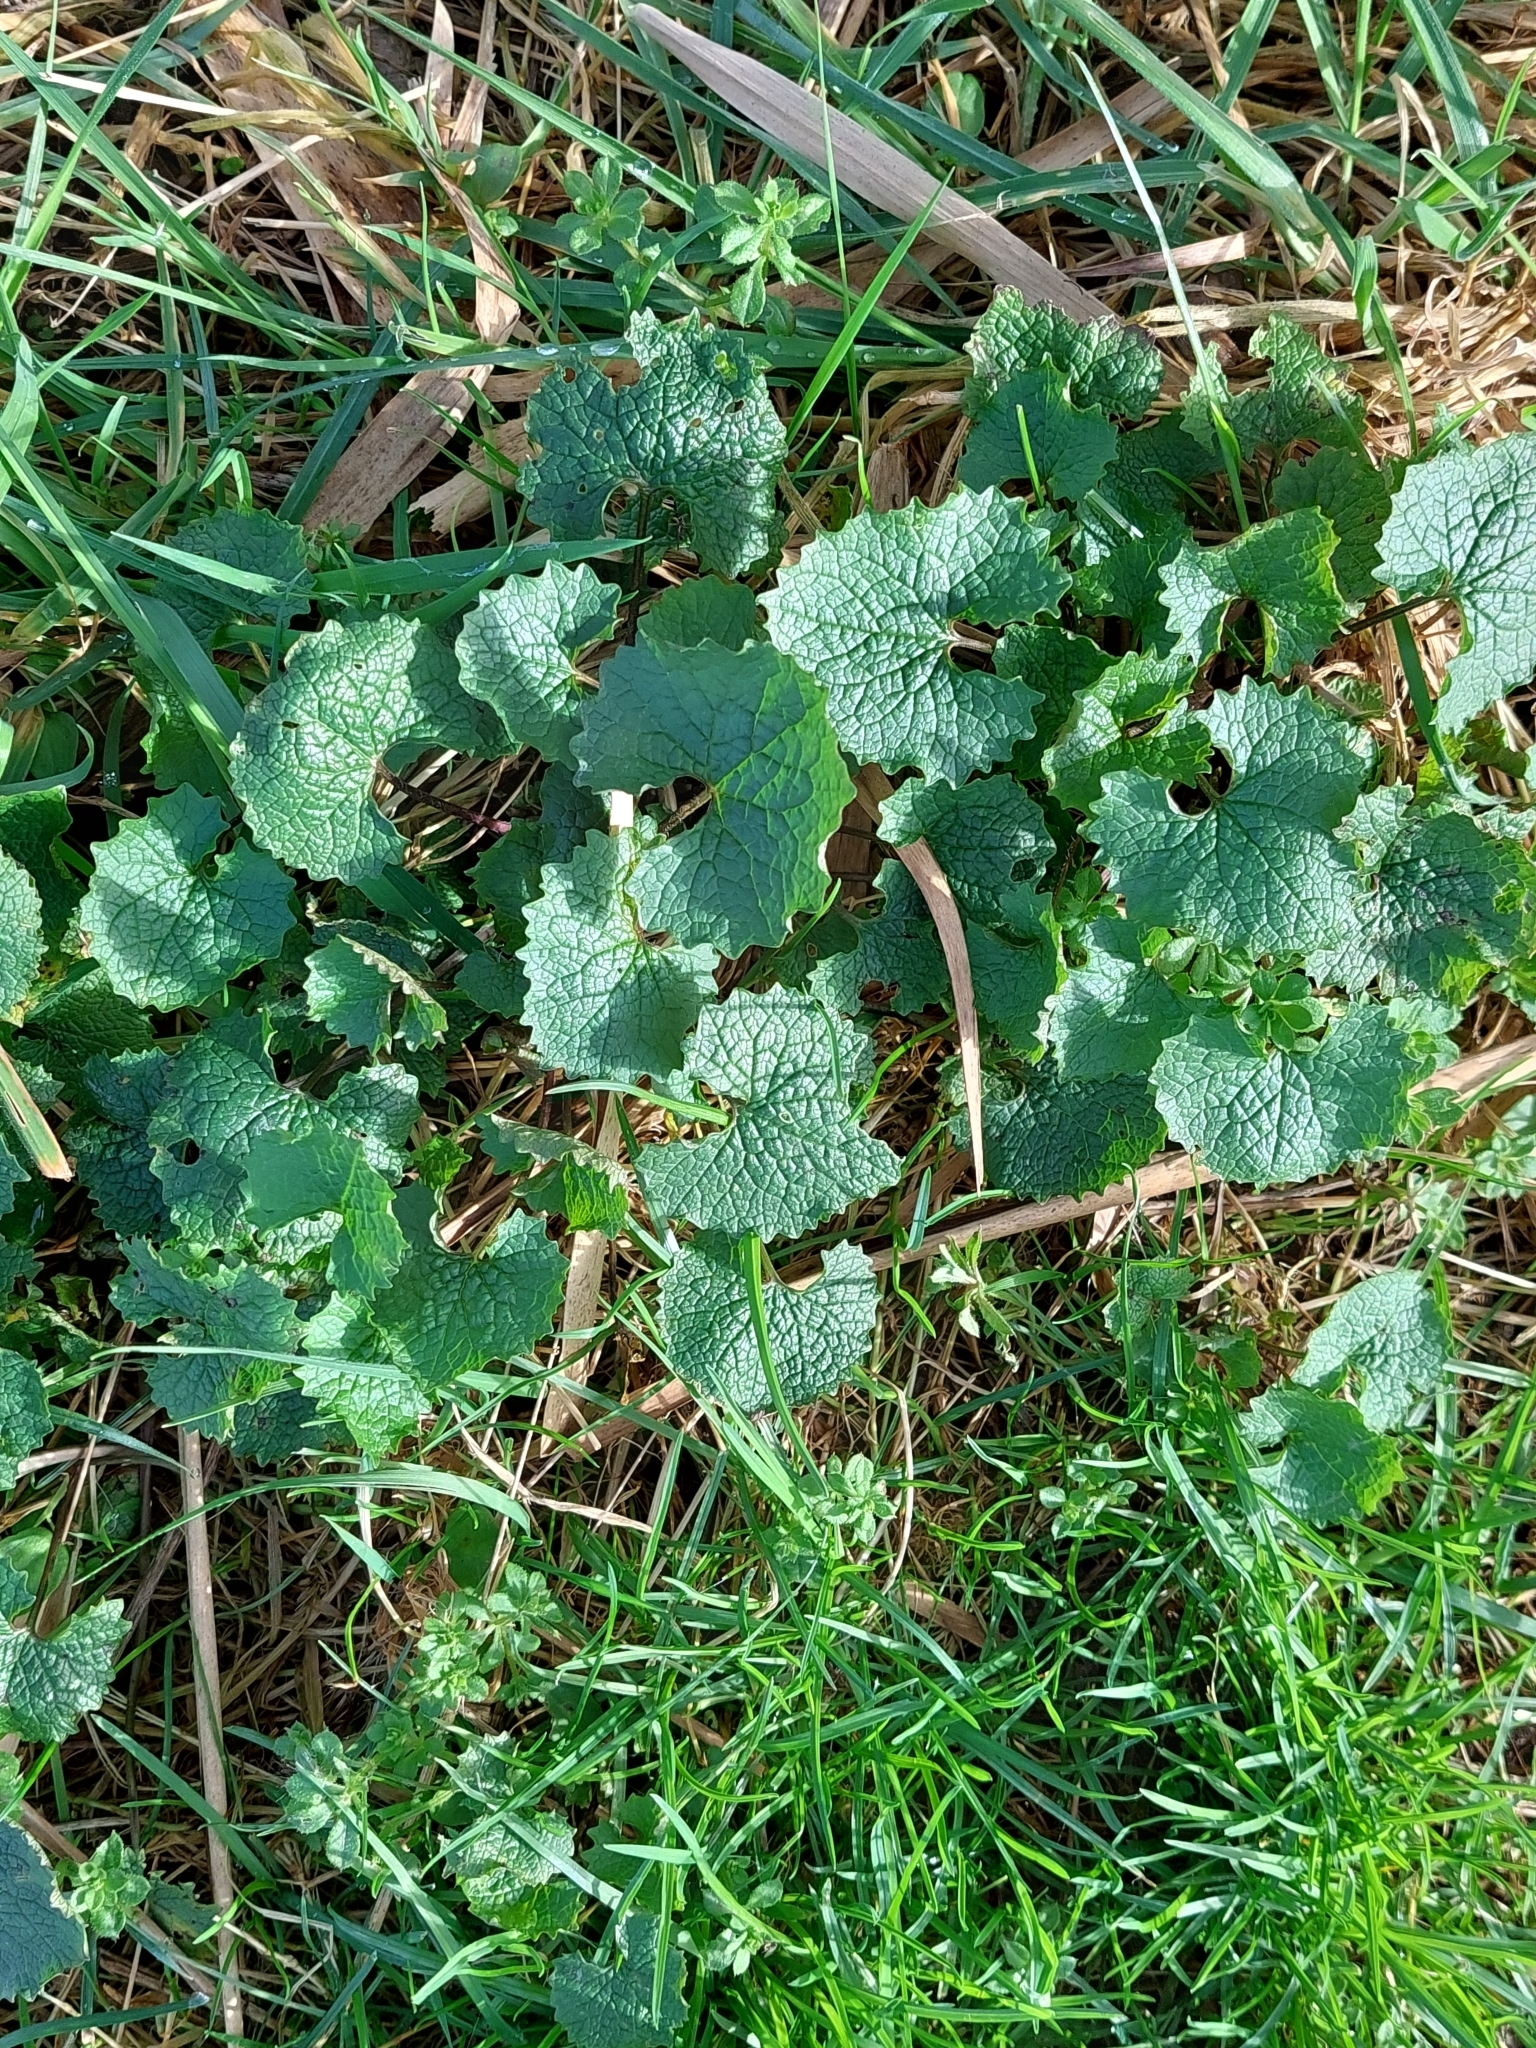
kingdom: Plantae
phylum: Tracheophyta
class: Magnoliopsida
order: Brassicales
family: Brassicaceae
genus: Alliaria
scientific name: Alliaria petiolata
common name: Garlic mustard
